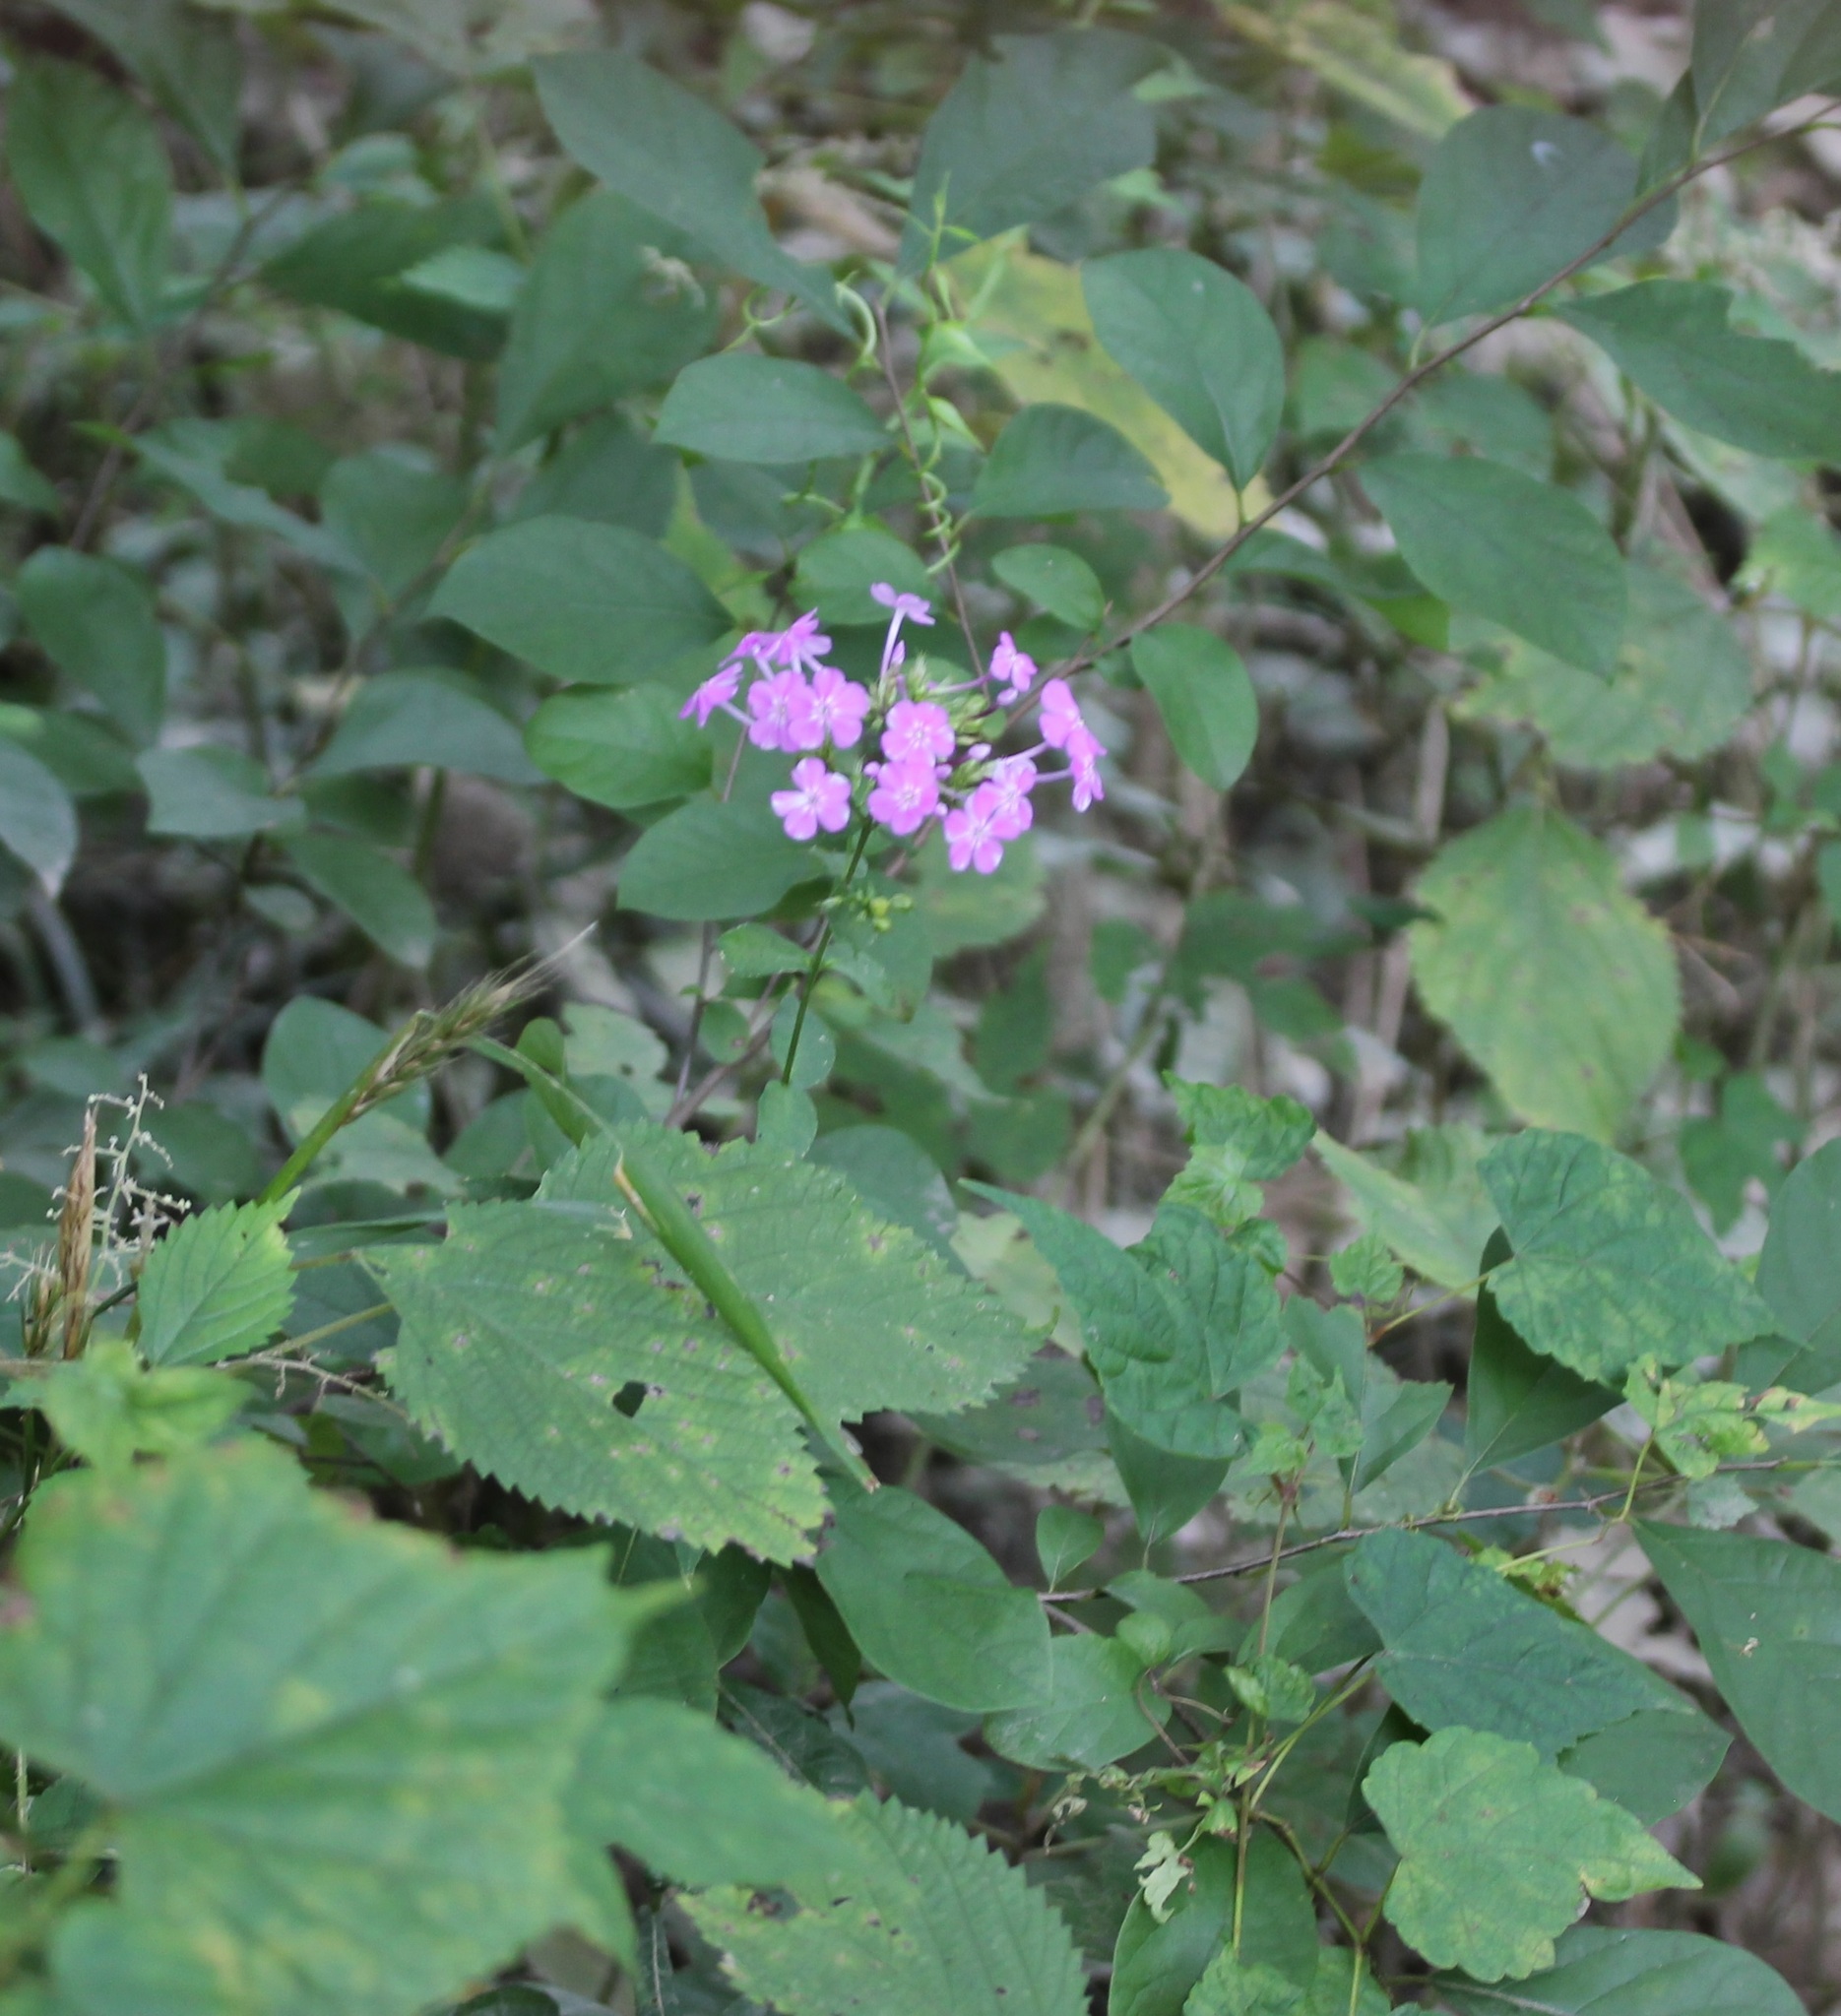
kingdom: Plantae
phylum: Tracheophyta
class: Magnoliopsida
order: Ericales
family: Polemoniaceae
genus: Phlox
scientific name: Phlox paniculata
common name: Fall phlox
